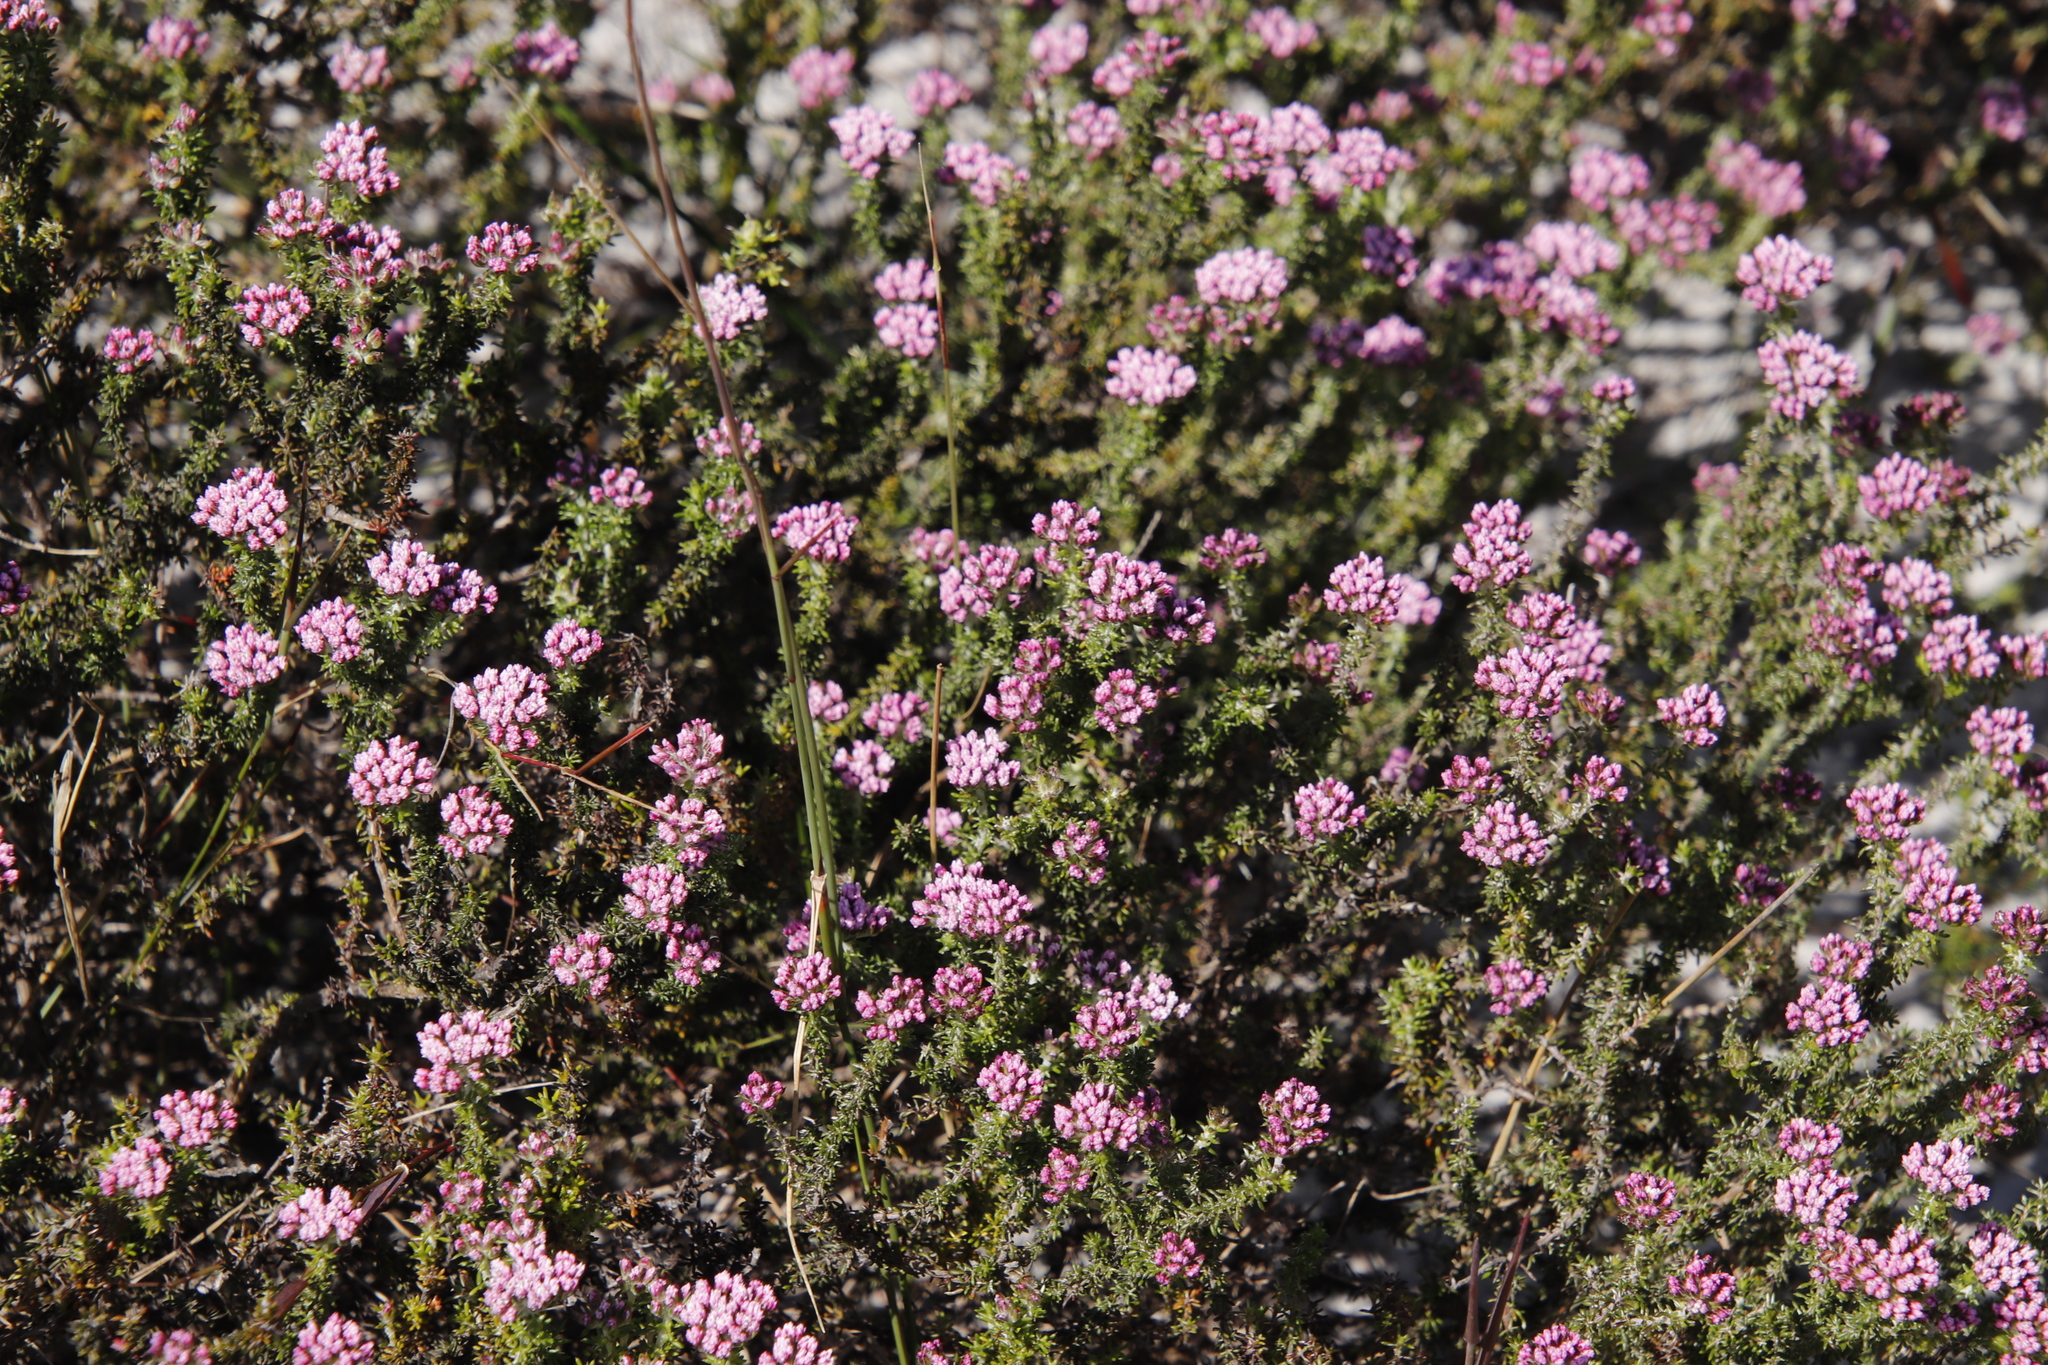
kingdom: Plantae
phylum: Tracheophyta
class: Magnoliopsida
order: Asterales
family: Asteraceae
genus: Metalasia
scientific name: Metalasia erubescens
